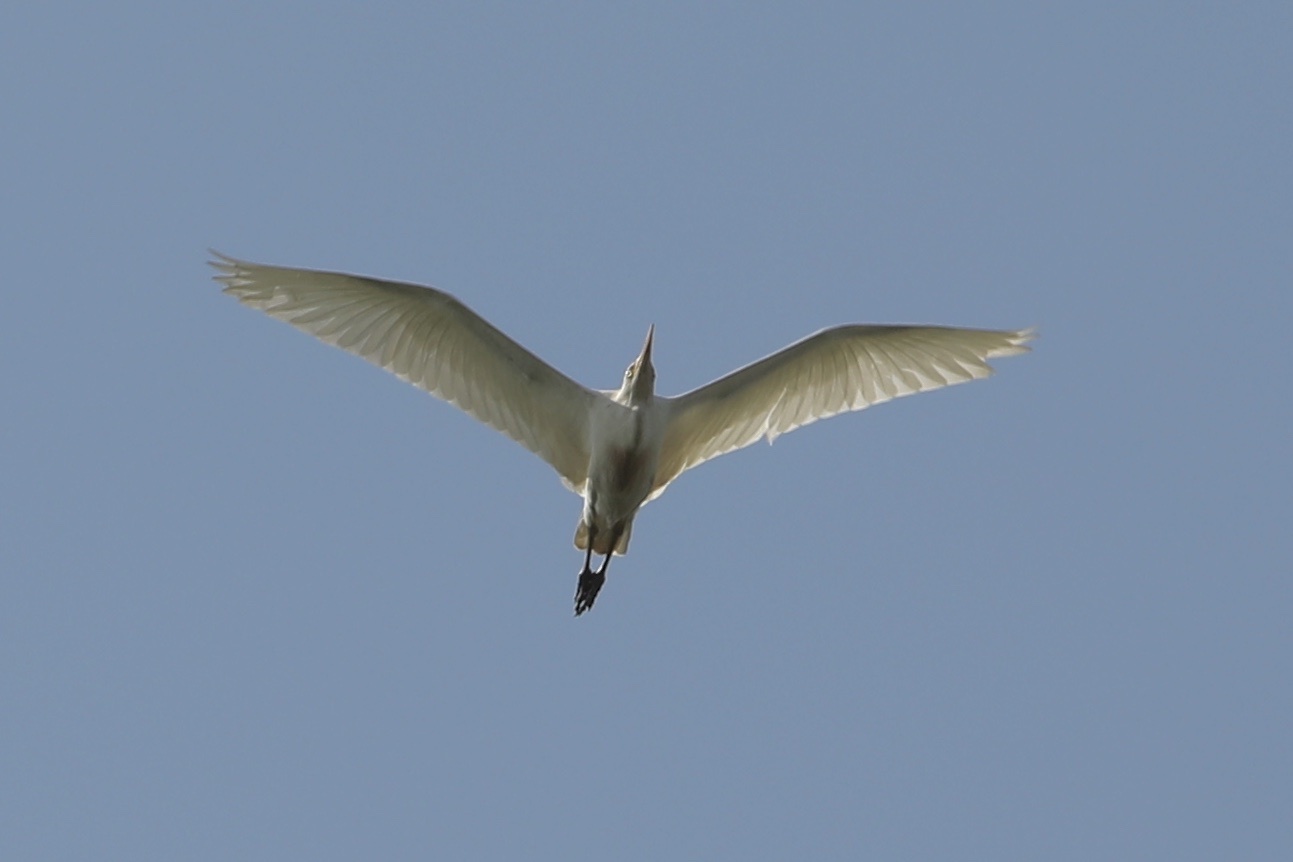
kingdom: Animalia
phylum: Chordata
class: Aves
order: Pelecaniformes
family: Ardeidae
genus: Bubulcus
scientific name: Bubulcus ibis
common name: Cattle egret
